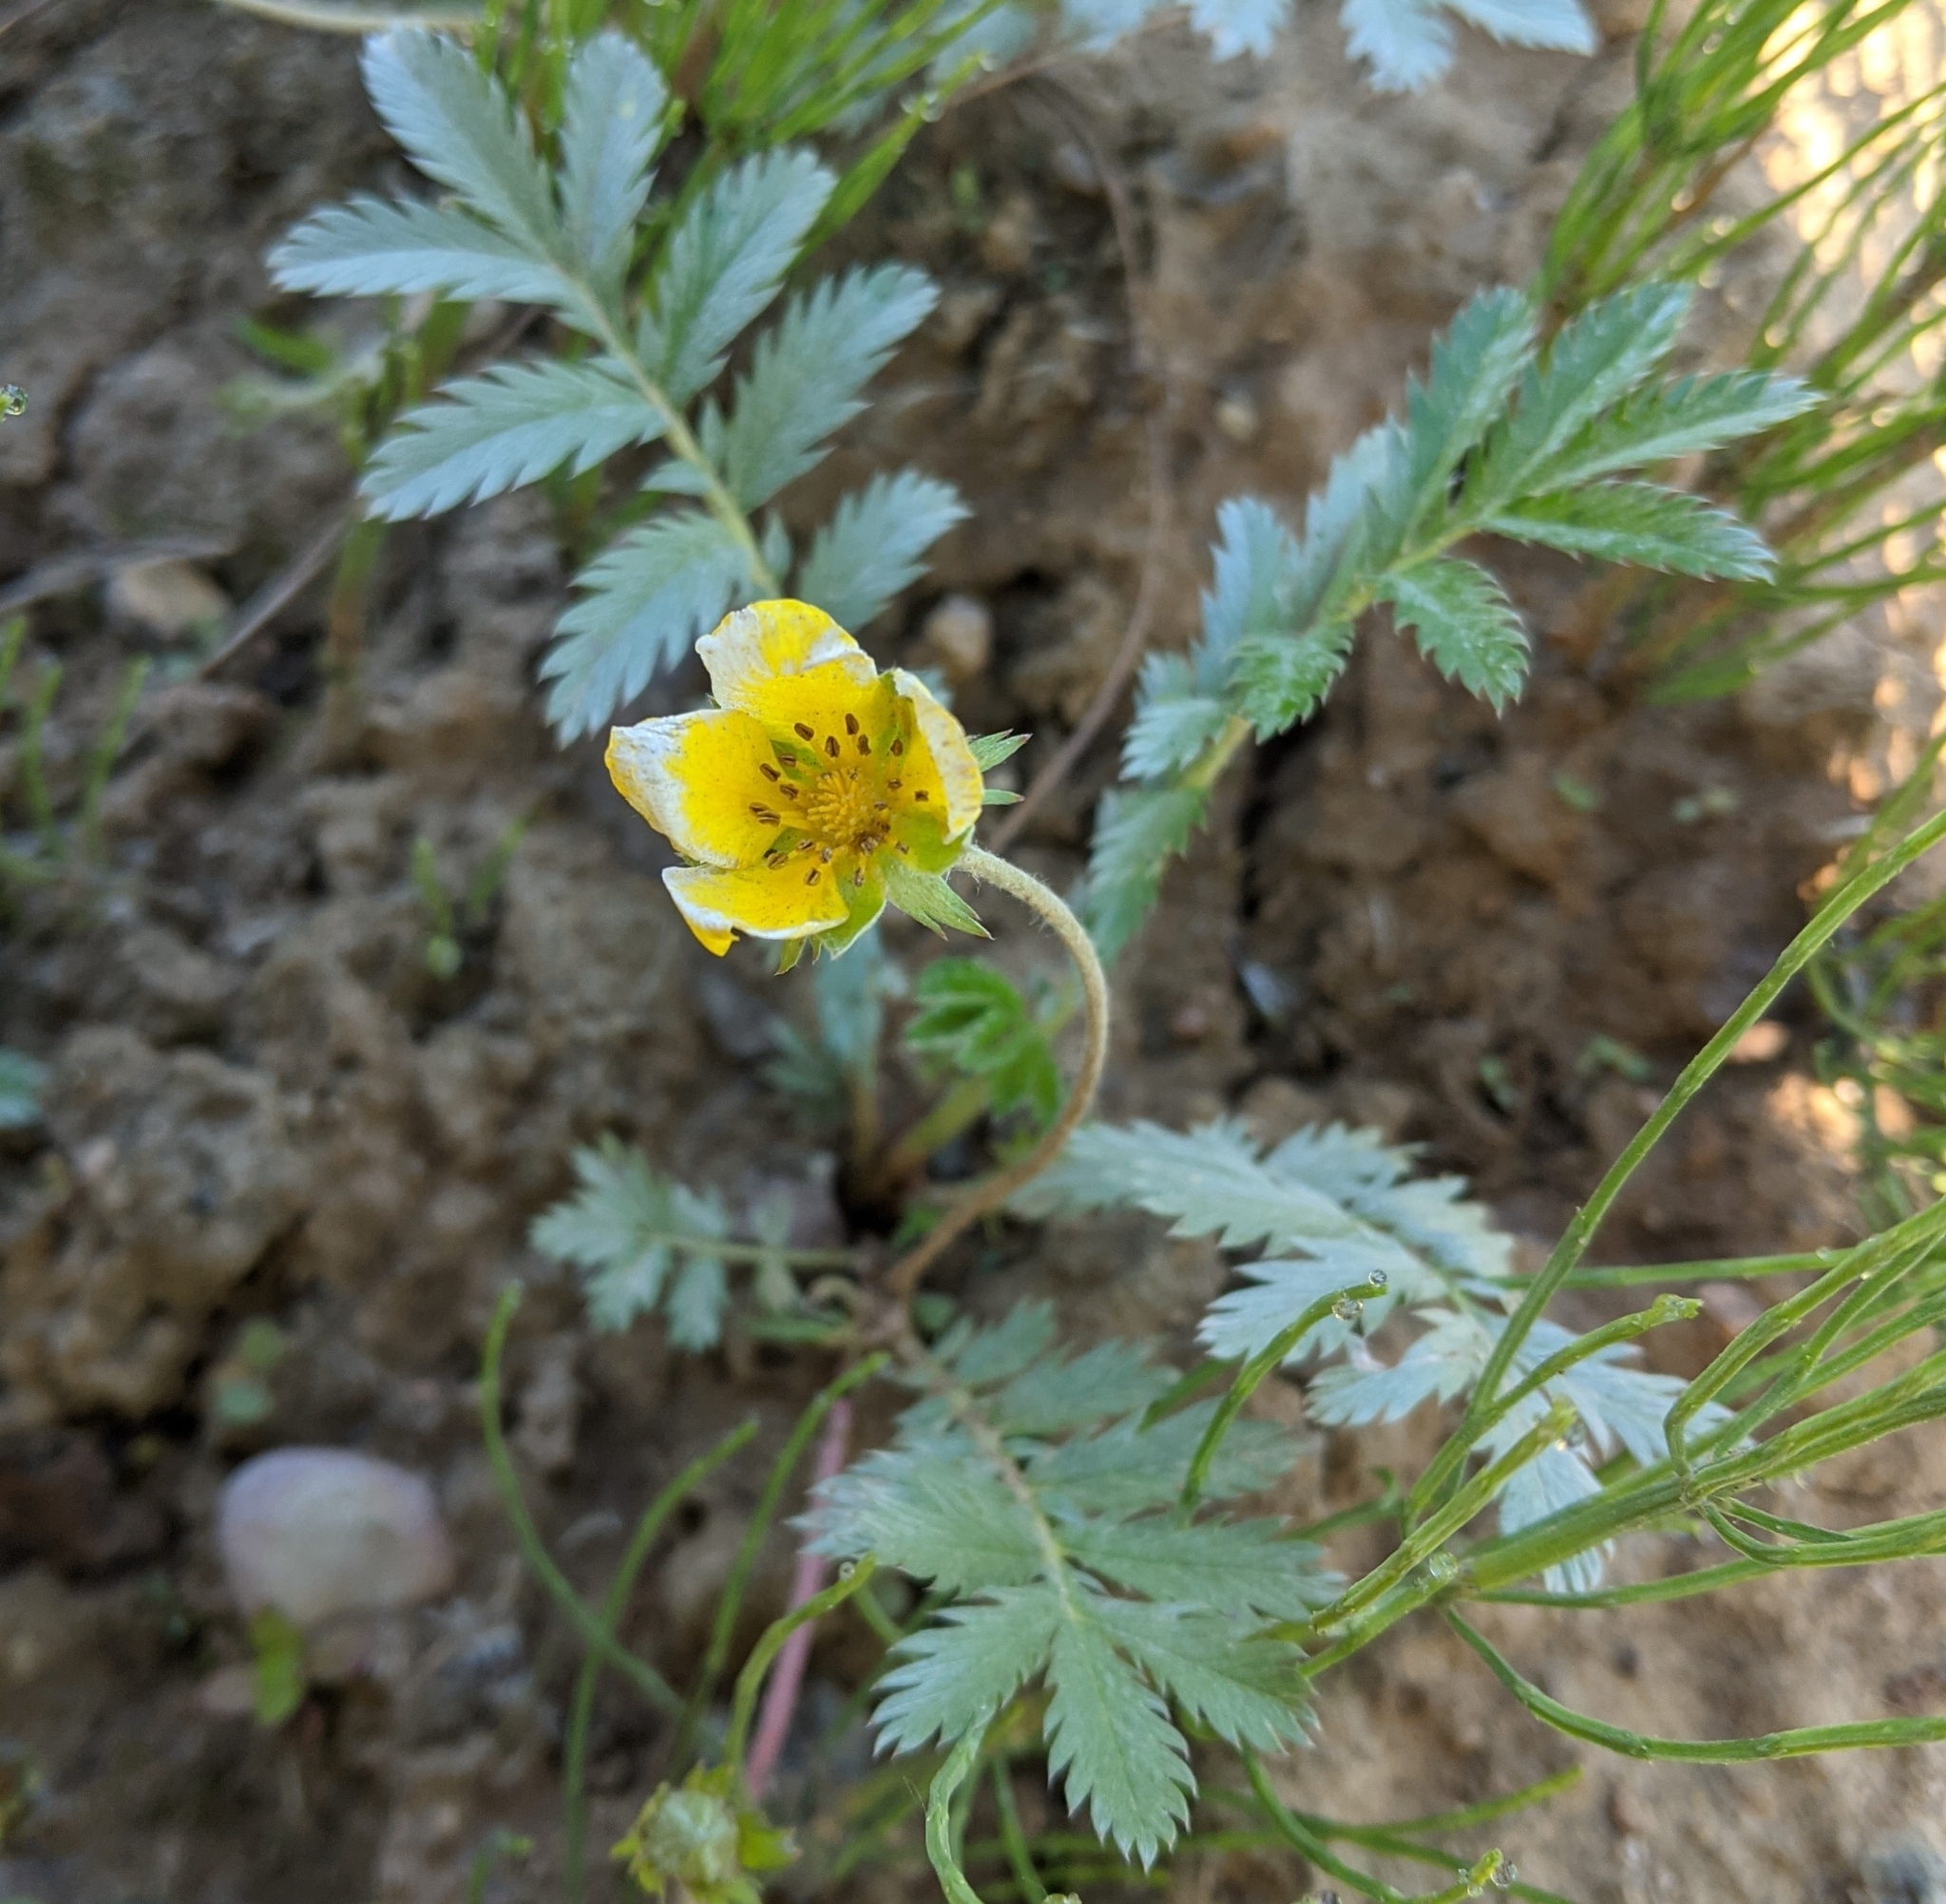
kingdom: Plantae
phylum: Tracheophyta
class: Magnoliopsida
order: Rosales
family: Rosaceae
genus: Argentina
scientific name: Argentina anserina
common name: Common silverweed
